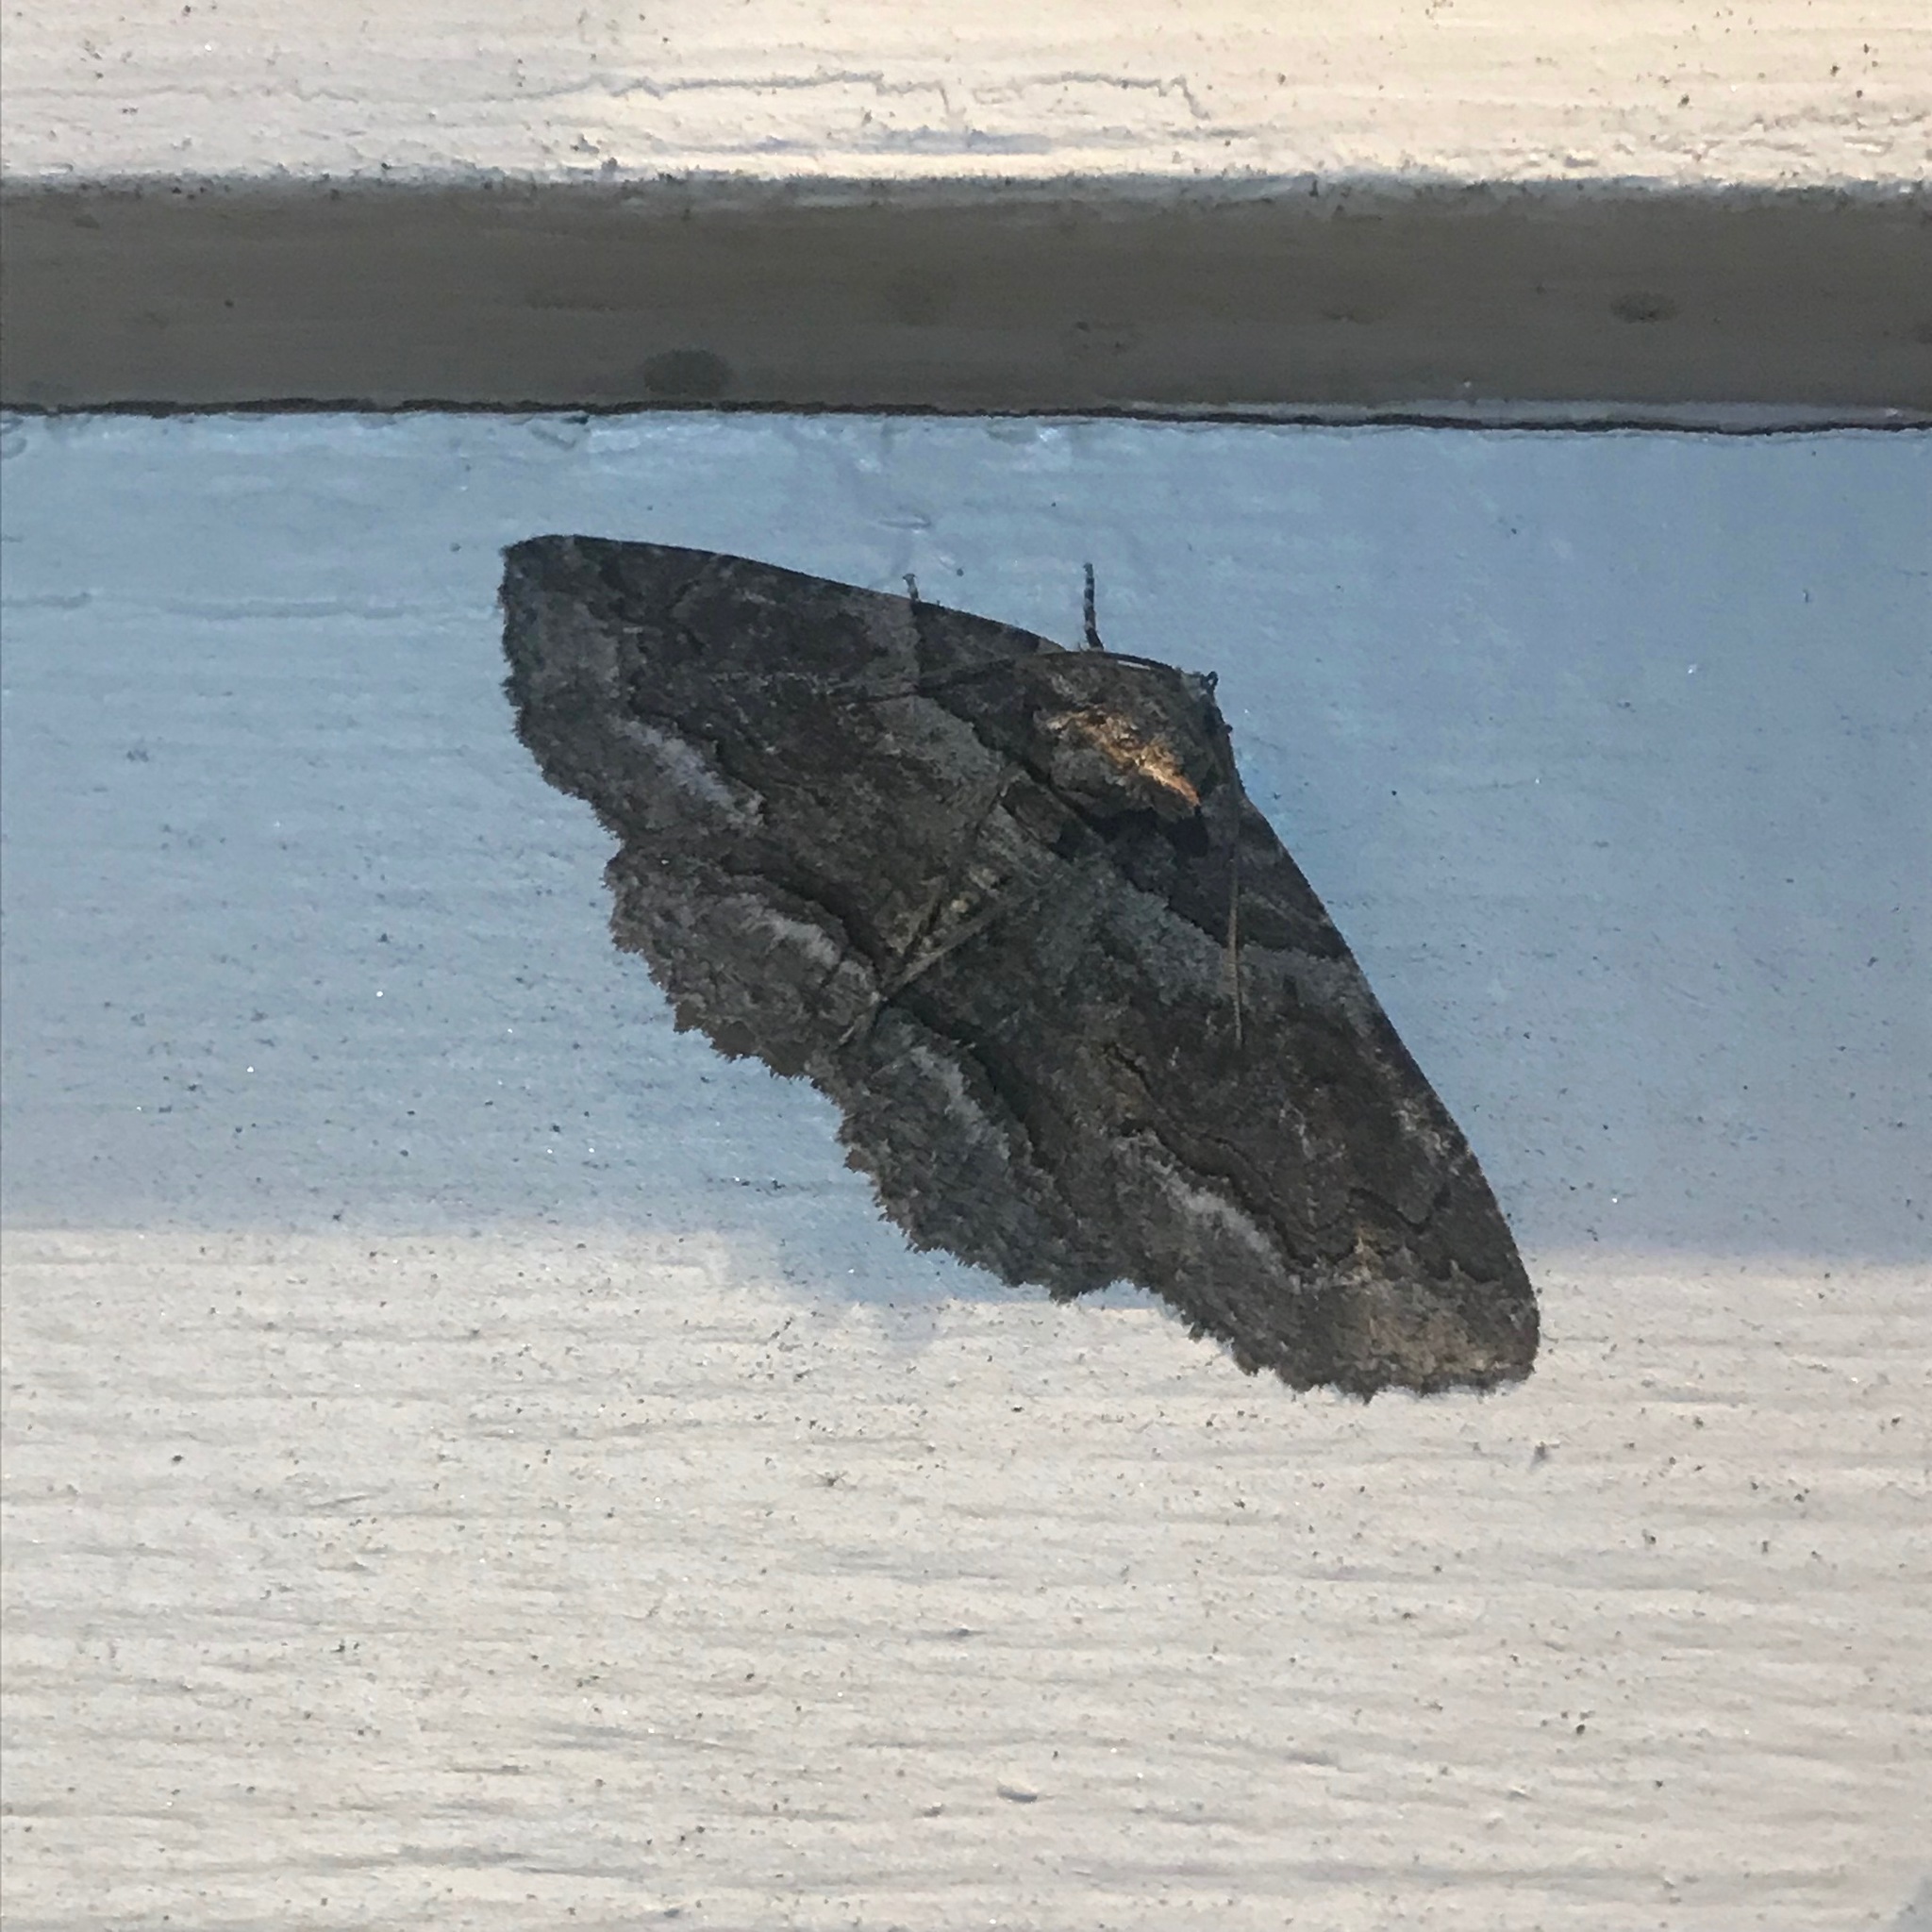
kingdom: Animalia
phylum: Arthropoda
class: Insecta
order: Lepidoptera
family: Erebidae
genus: Zale
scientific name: Zale galbanata
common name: Maple zale
